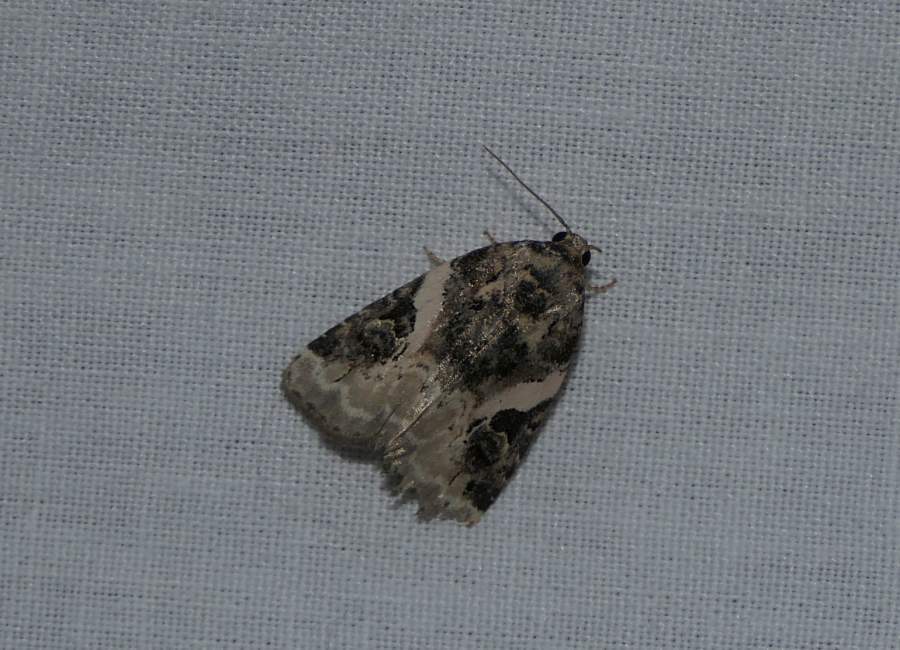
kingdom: Animalia
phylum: Arthropoda
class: Insecta
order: Lepidoptera
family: Noctuidae
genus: Pseudeustrotia
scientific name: Pseudeustrotia carneola
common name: Pink-barred lithacodia moth
